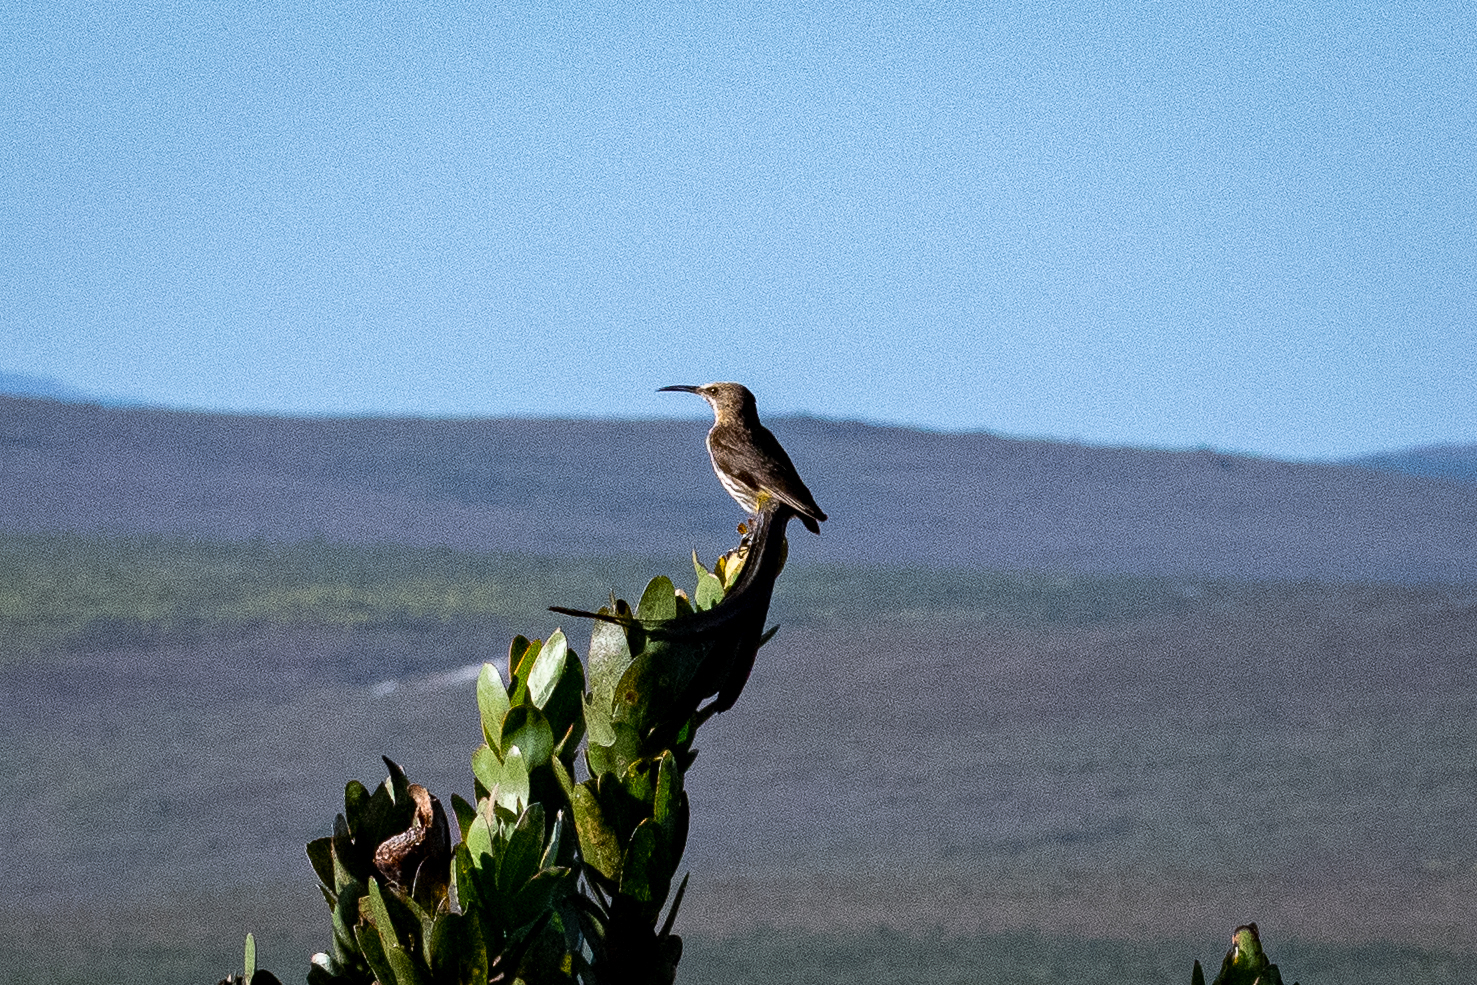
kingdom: Animalia
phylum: Chordata
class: Aves
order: Passeriformes
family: Promeropidae
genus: Promerops
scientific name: Promerops cafer
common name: Cape sugarbird
